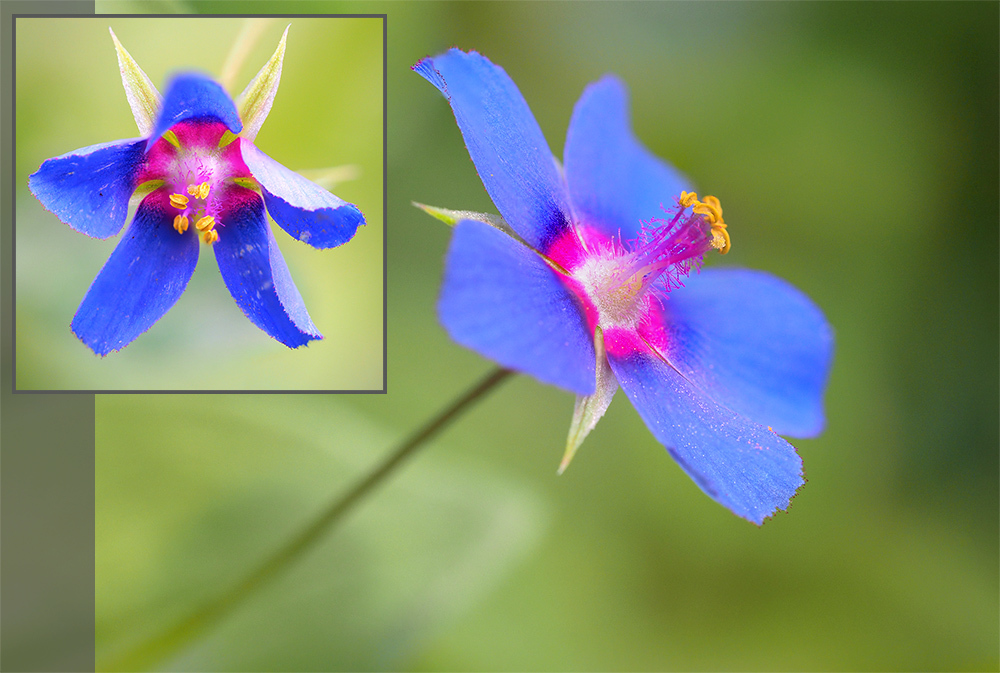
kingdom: Plantae
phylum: Tracheophyta
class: Magnoliopsida
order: Ericales
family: Primulaceae
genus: Lysimachia
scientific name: Lysimachia foemina
